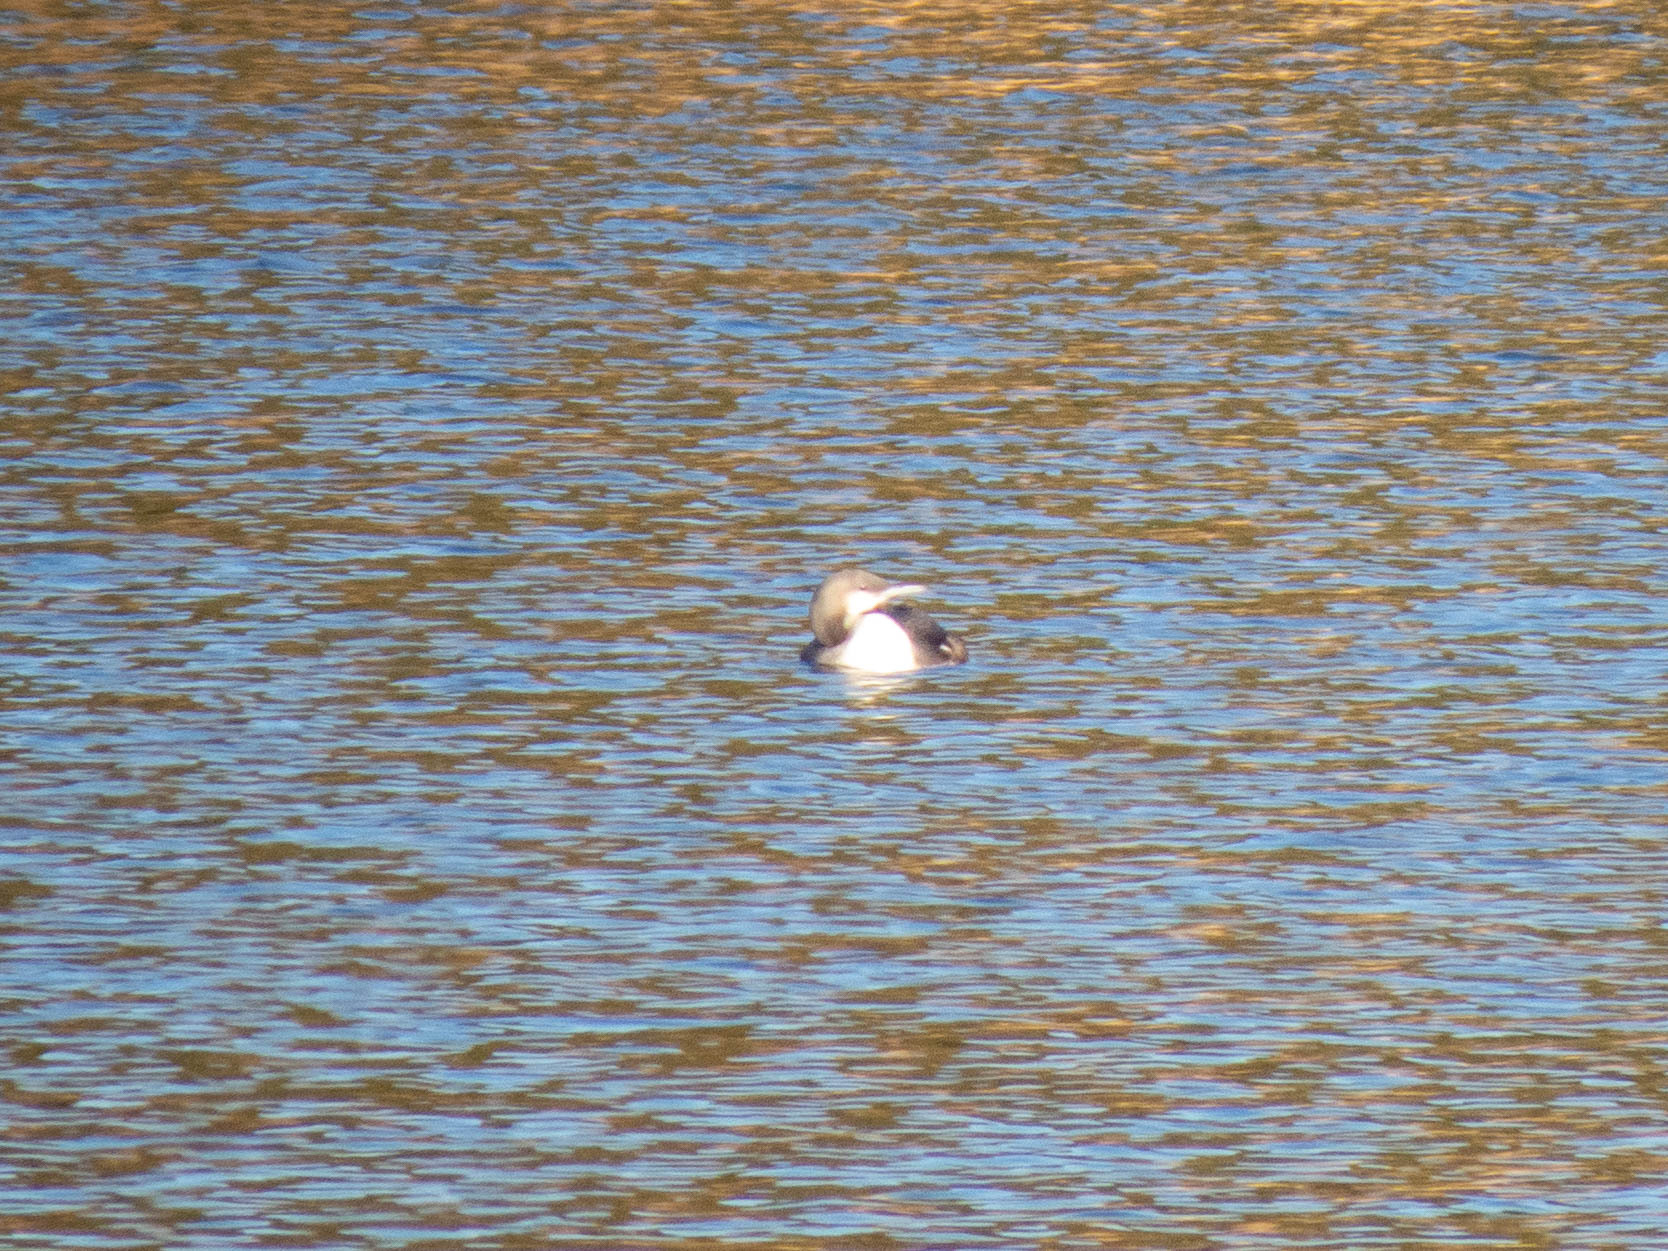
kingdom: Animalia
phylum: Chordata
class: Aves
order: Gaviiformes
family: Gaviidae
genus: Gavia
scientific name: Gavia arctica
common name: Black-throated loon
